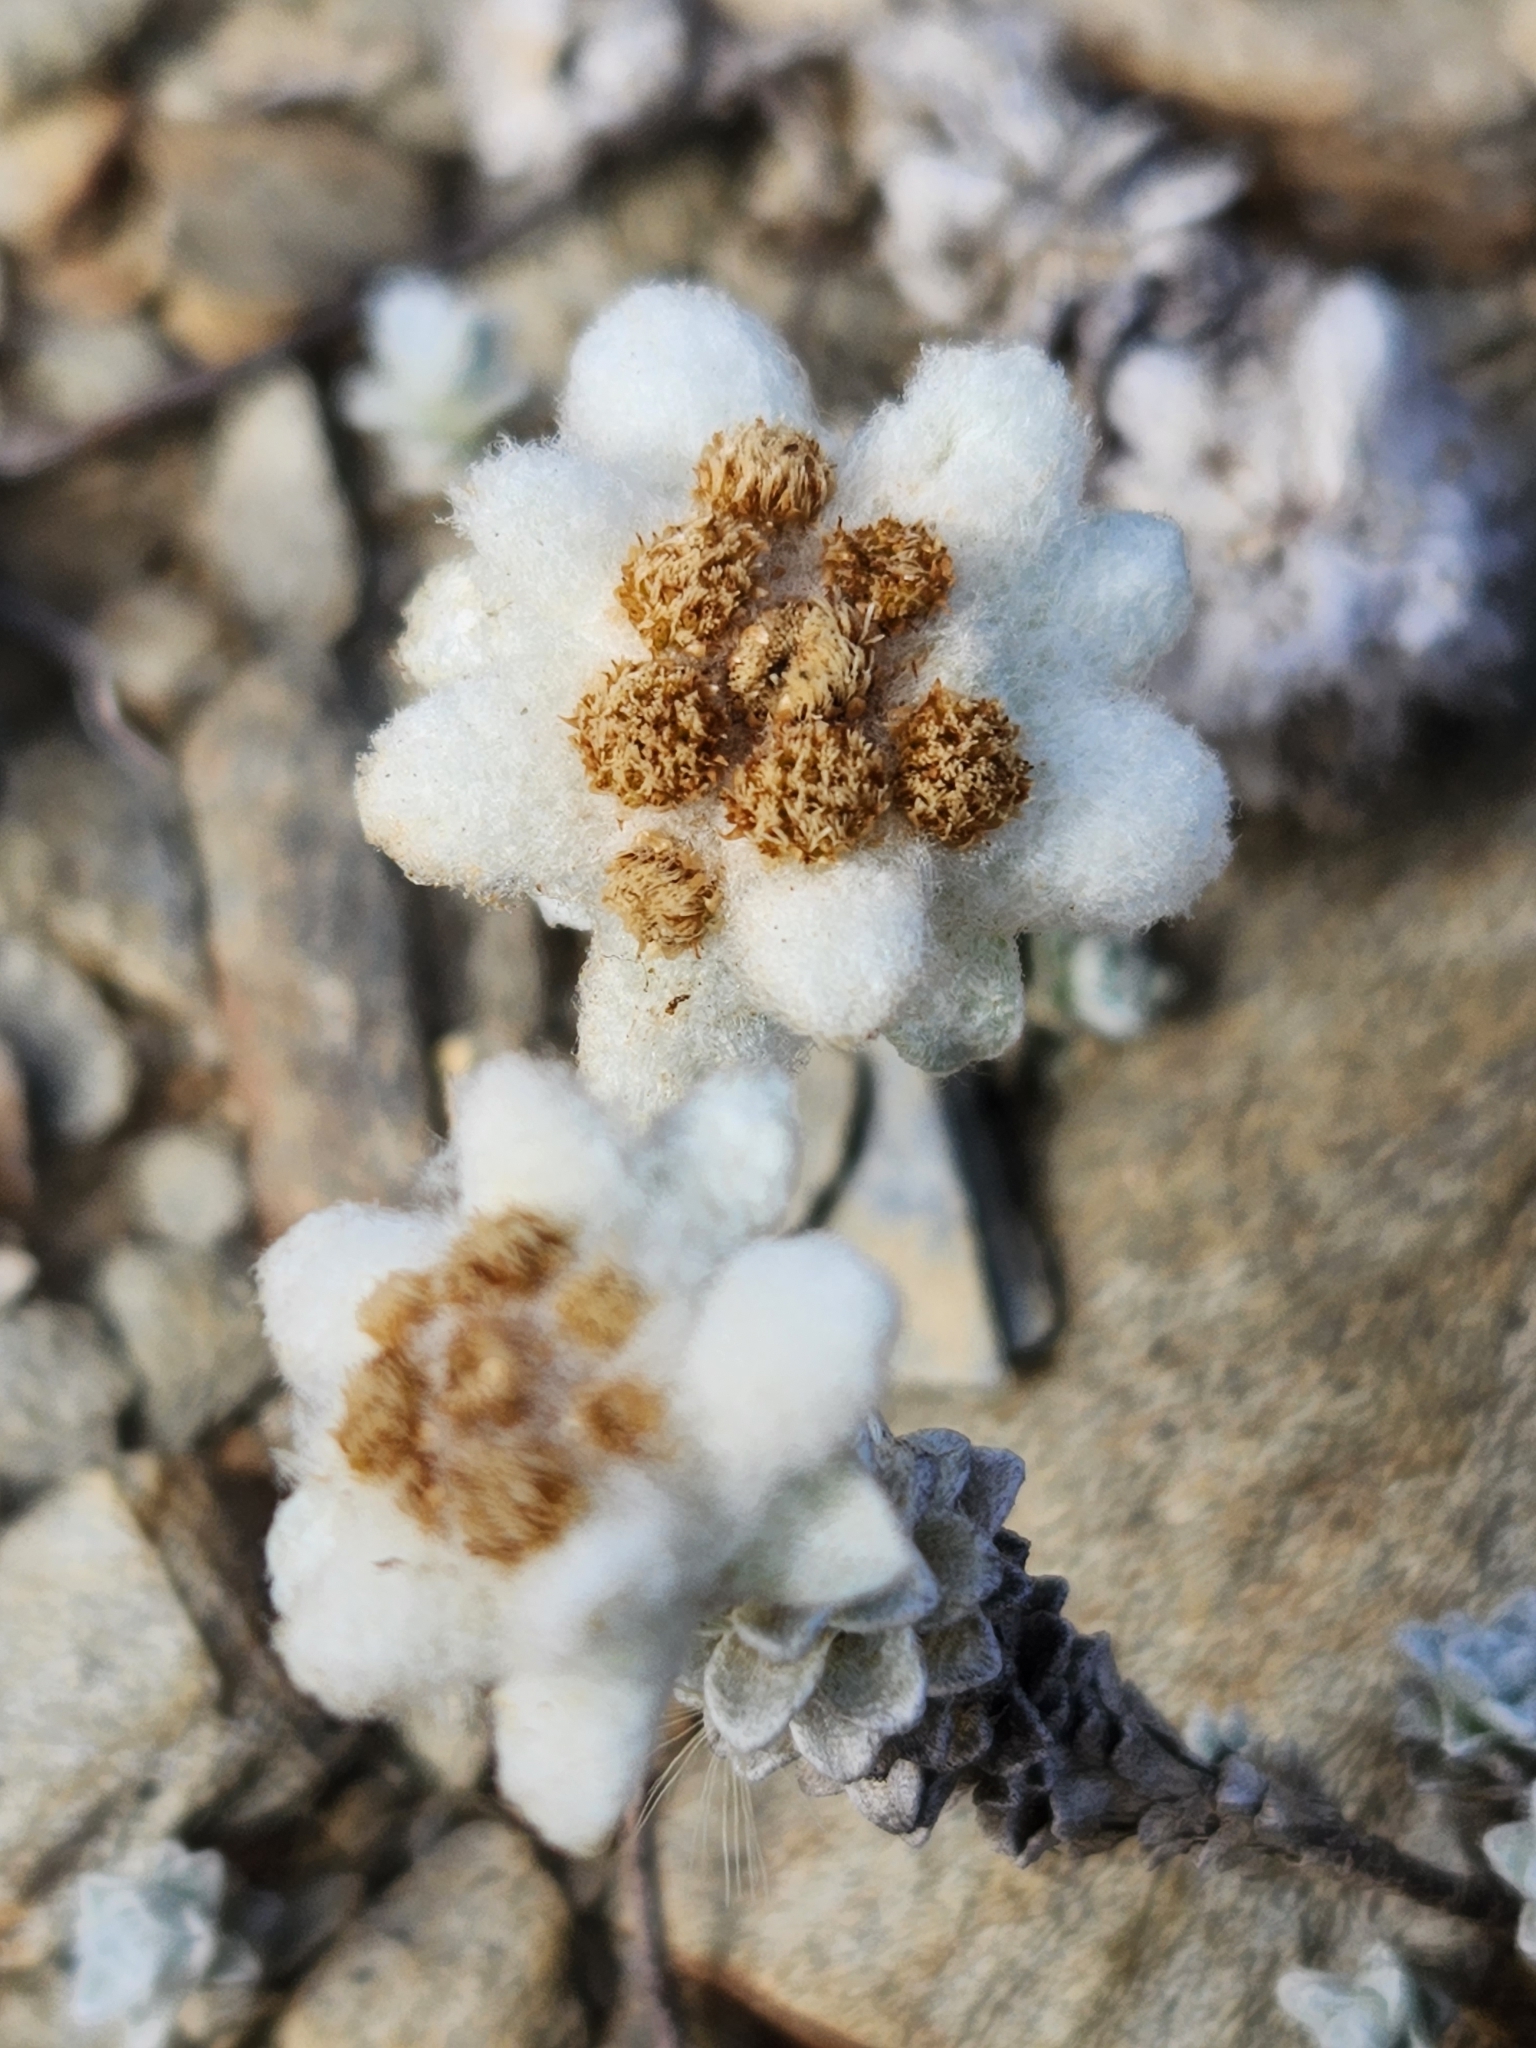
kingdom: Plantae
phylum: Tracheophyta
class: Magnoliopsida
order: Asterales
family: Asteraceae
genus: Leucogenes
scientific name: Leucogenes grandiceps
